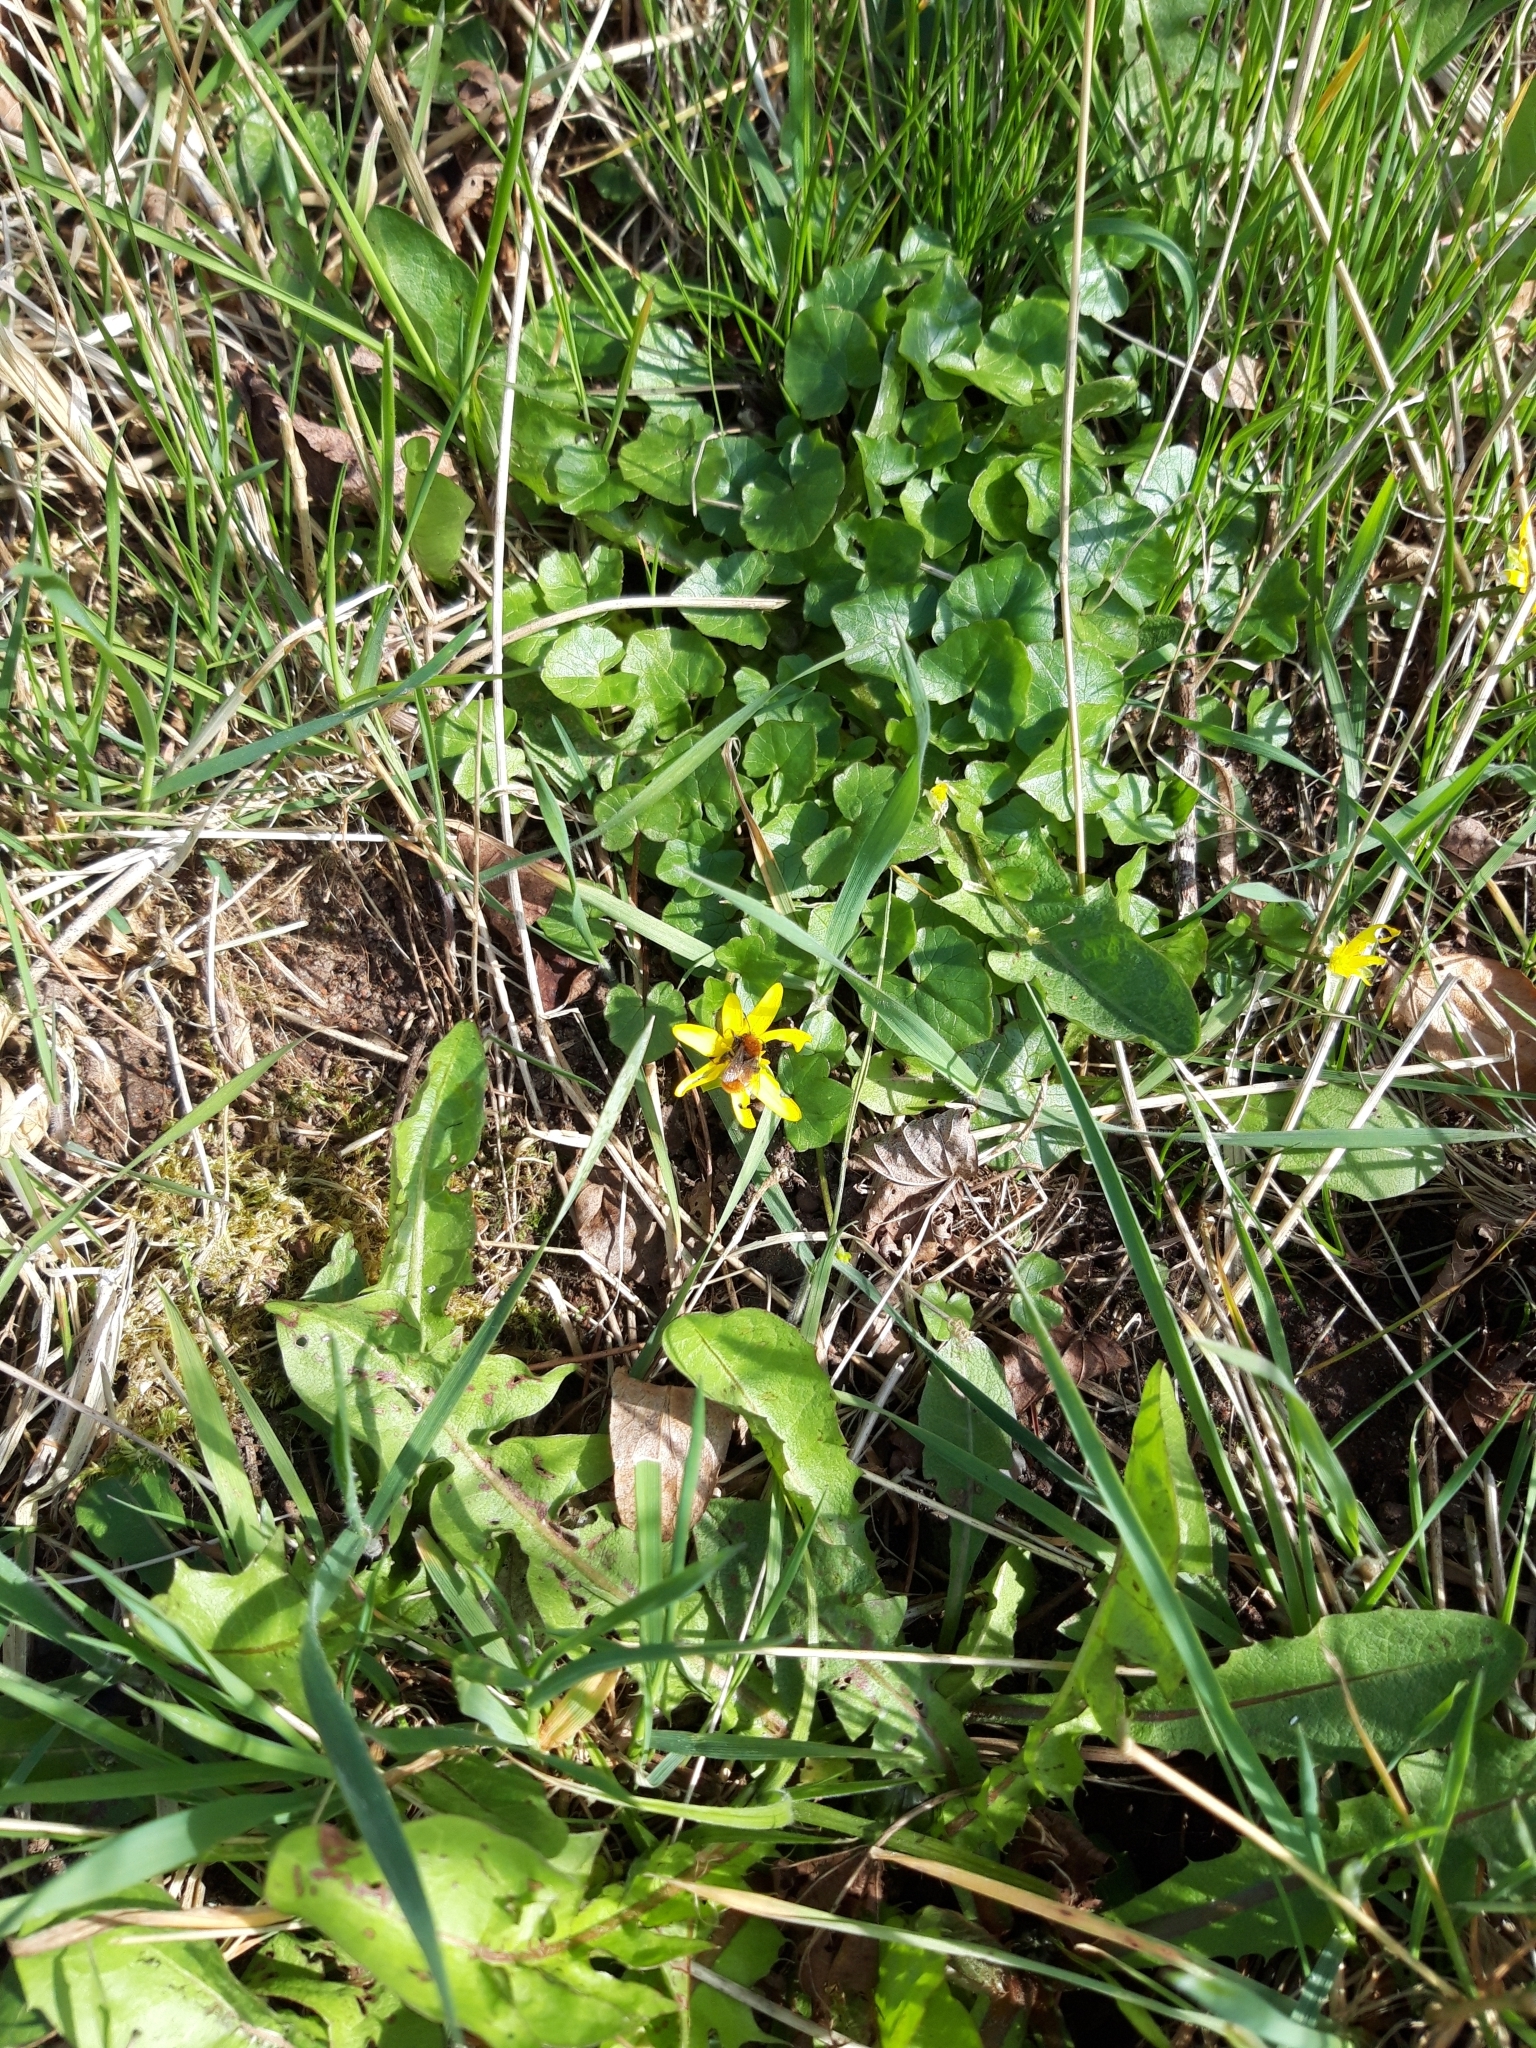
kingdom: Animalia
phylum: Arthropoda
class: Insecta
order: Hymenoptera
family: Andrenidae
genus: Andrena
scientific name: Andrena fulva
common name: Tawny mining bee
